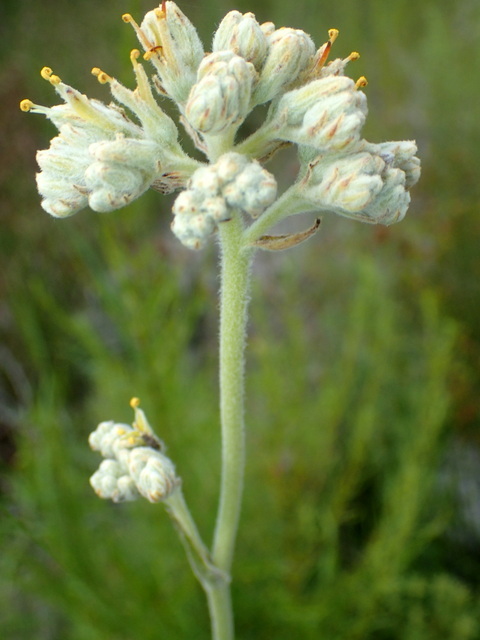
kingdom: Plantae
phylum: Tracheophyta
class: Liliopsida
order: Commelinales
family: Haemodoraceae
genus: Lachnanthes
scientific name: Lachnanthes caroliana
